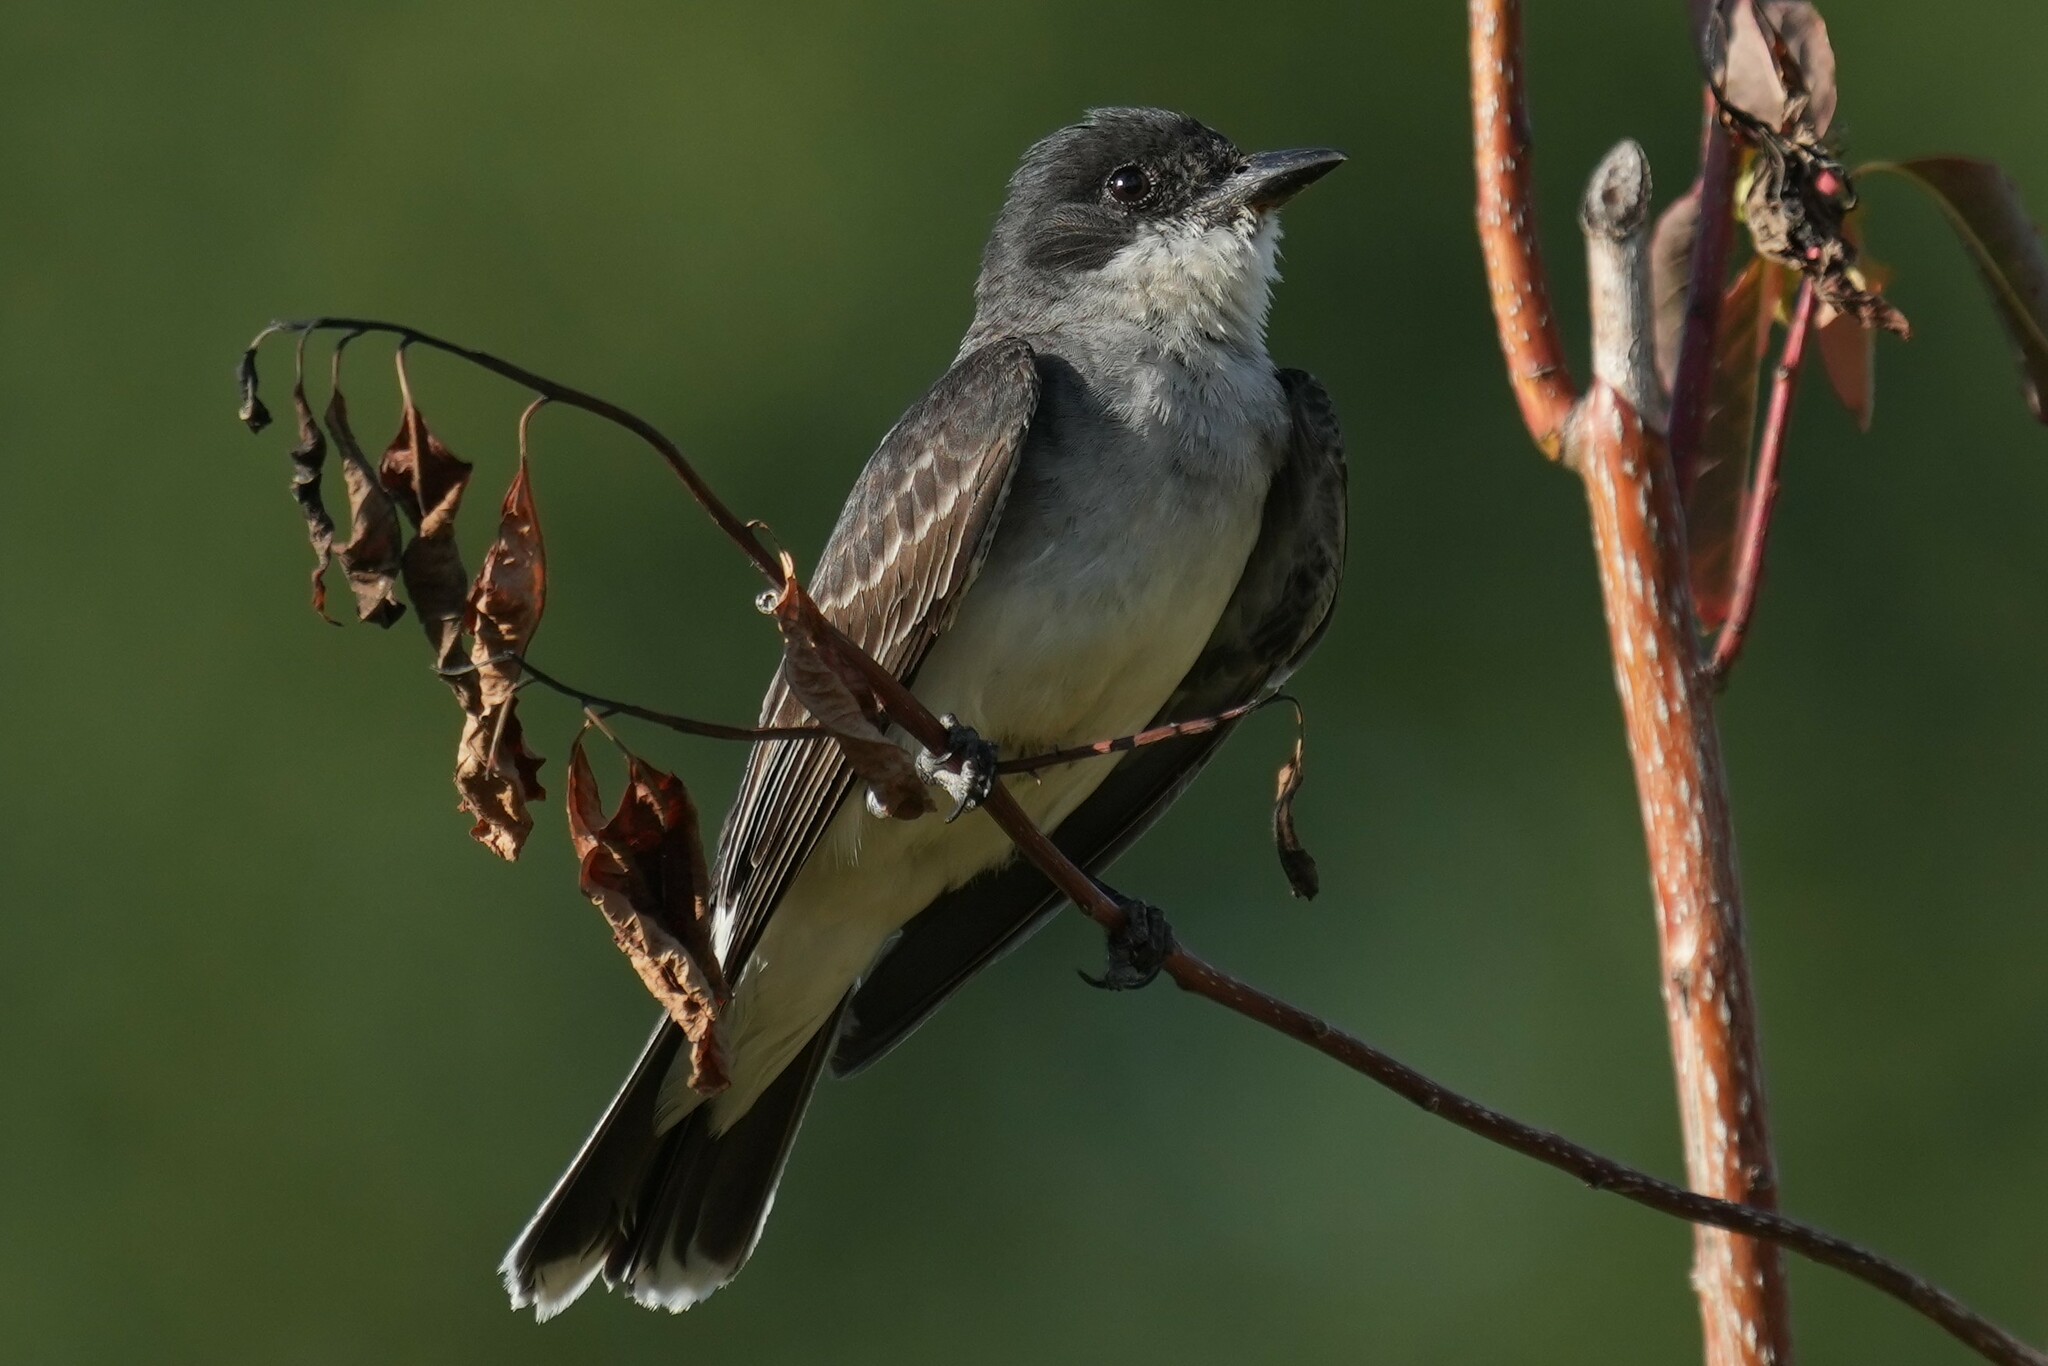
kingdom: Animalia
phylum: Chordata
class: Aves
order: Passeriformes
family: Tyrannidae
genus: Tyrannus
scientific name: Tyrannus tyrannus
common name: Eastern kingbird
